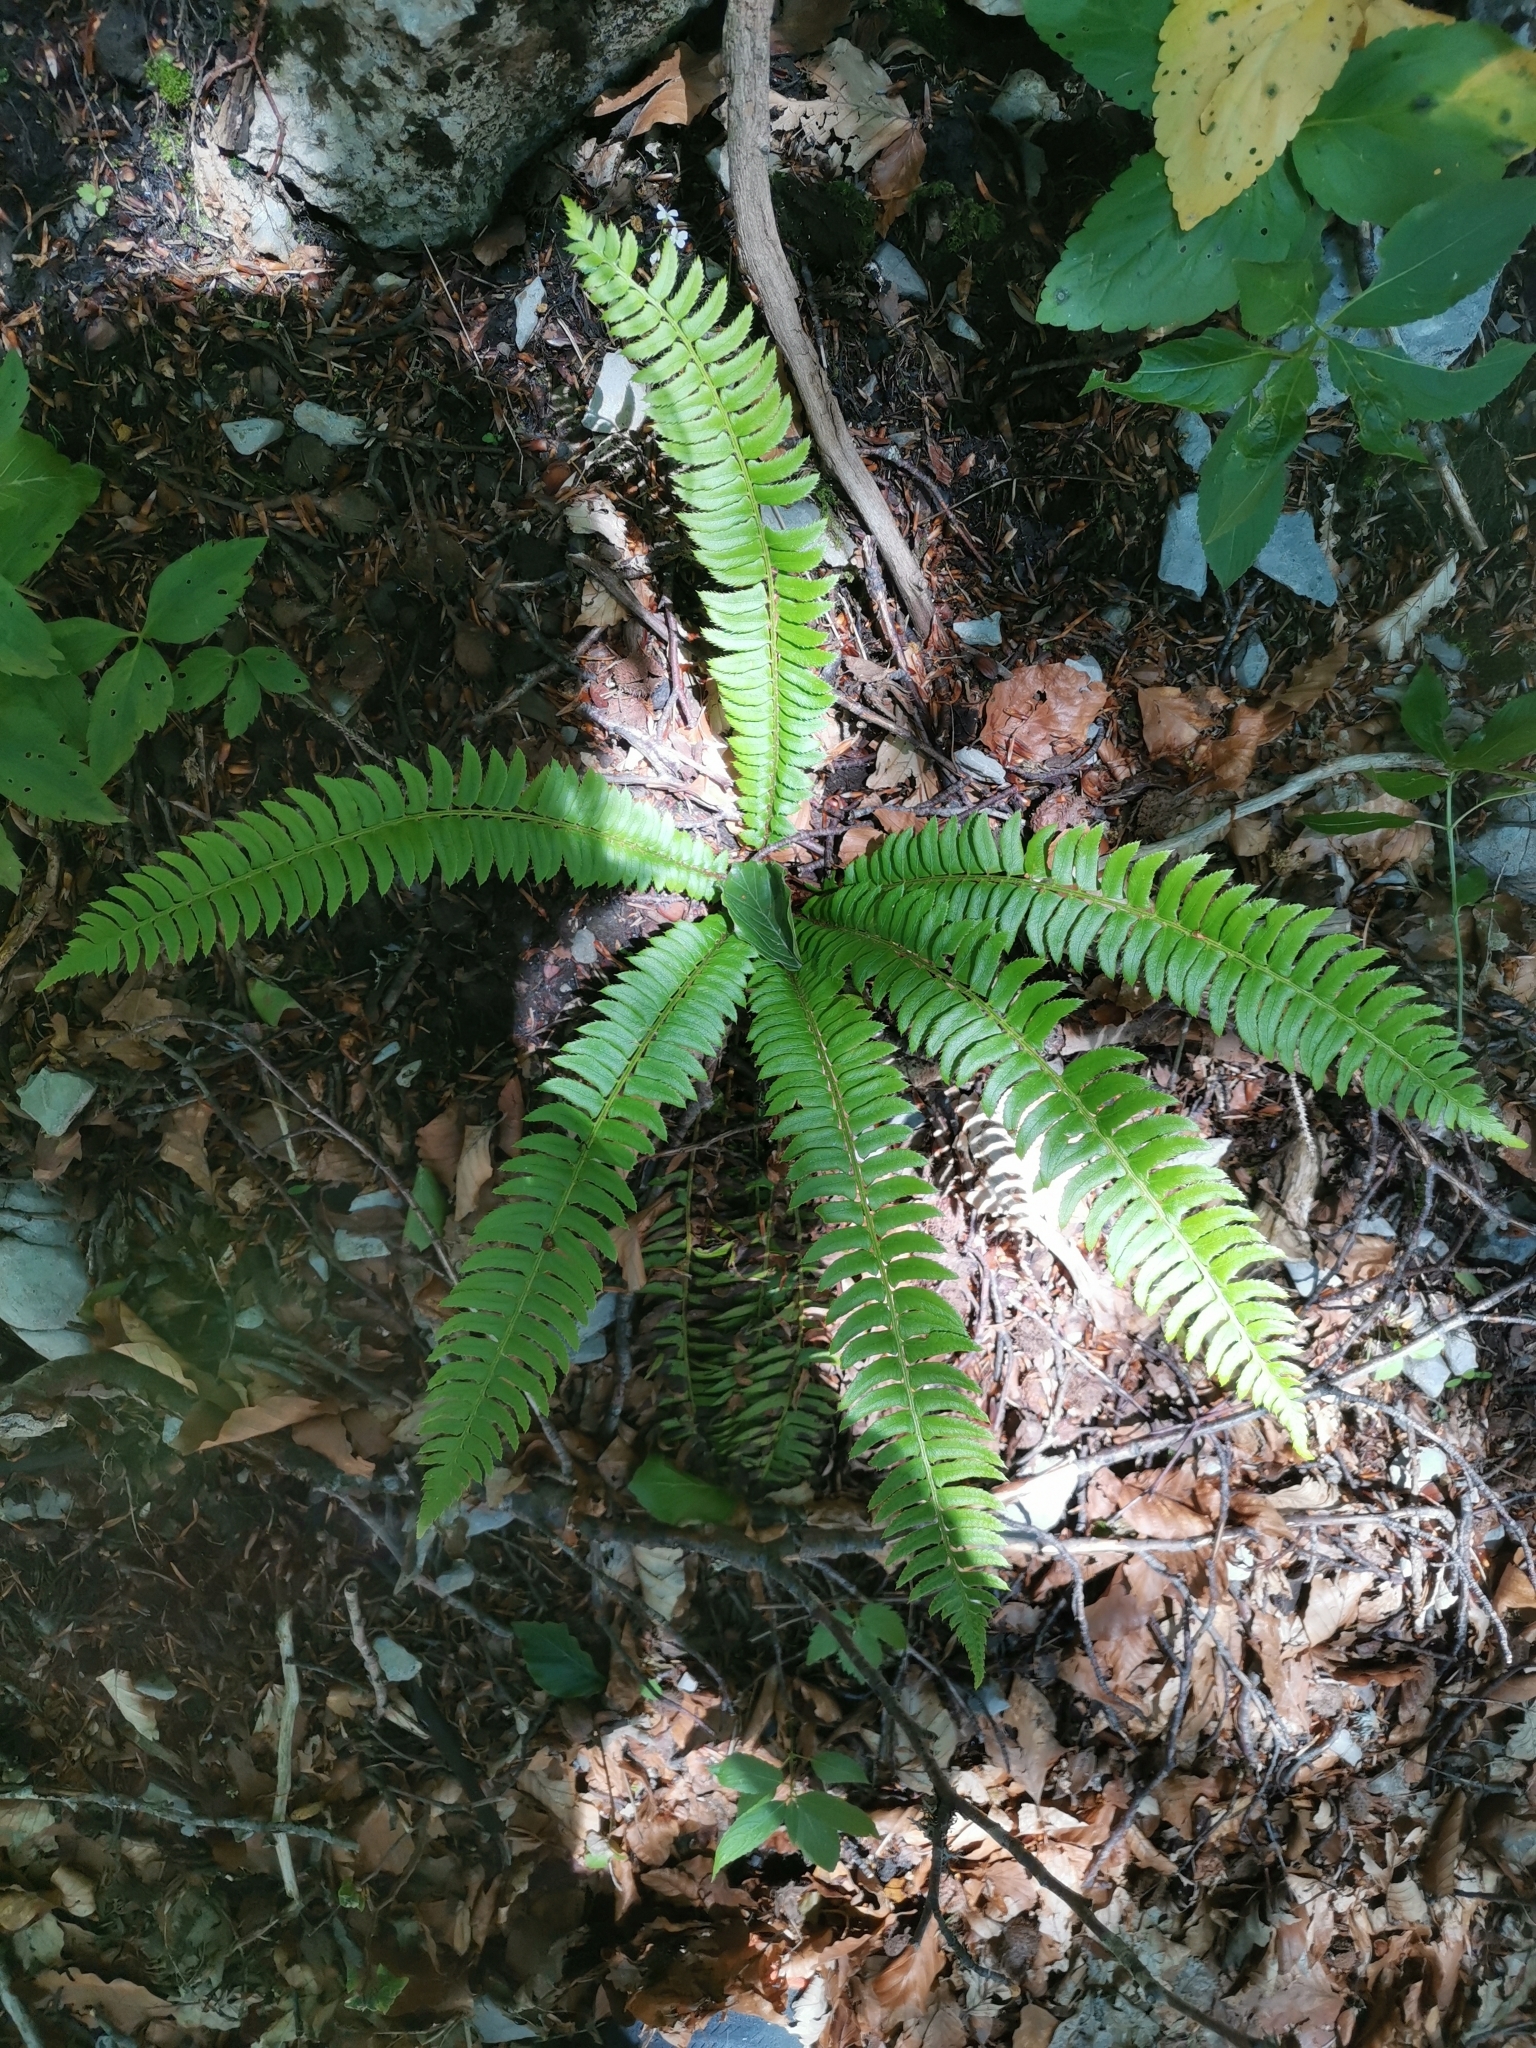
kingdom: Plantae
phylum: Tracheophyta
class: Polypodiopsida
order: Polypodiales
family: Dryopteridaceae
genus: Polystichum
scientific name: Polystichum lonchitis
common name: Holly fern
